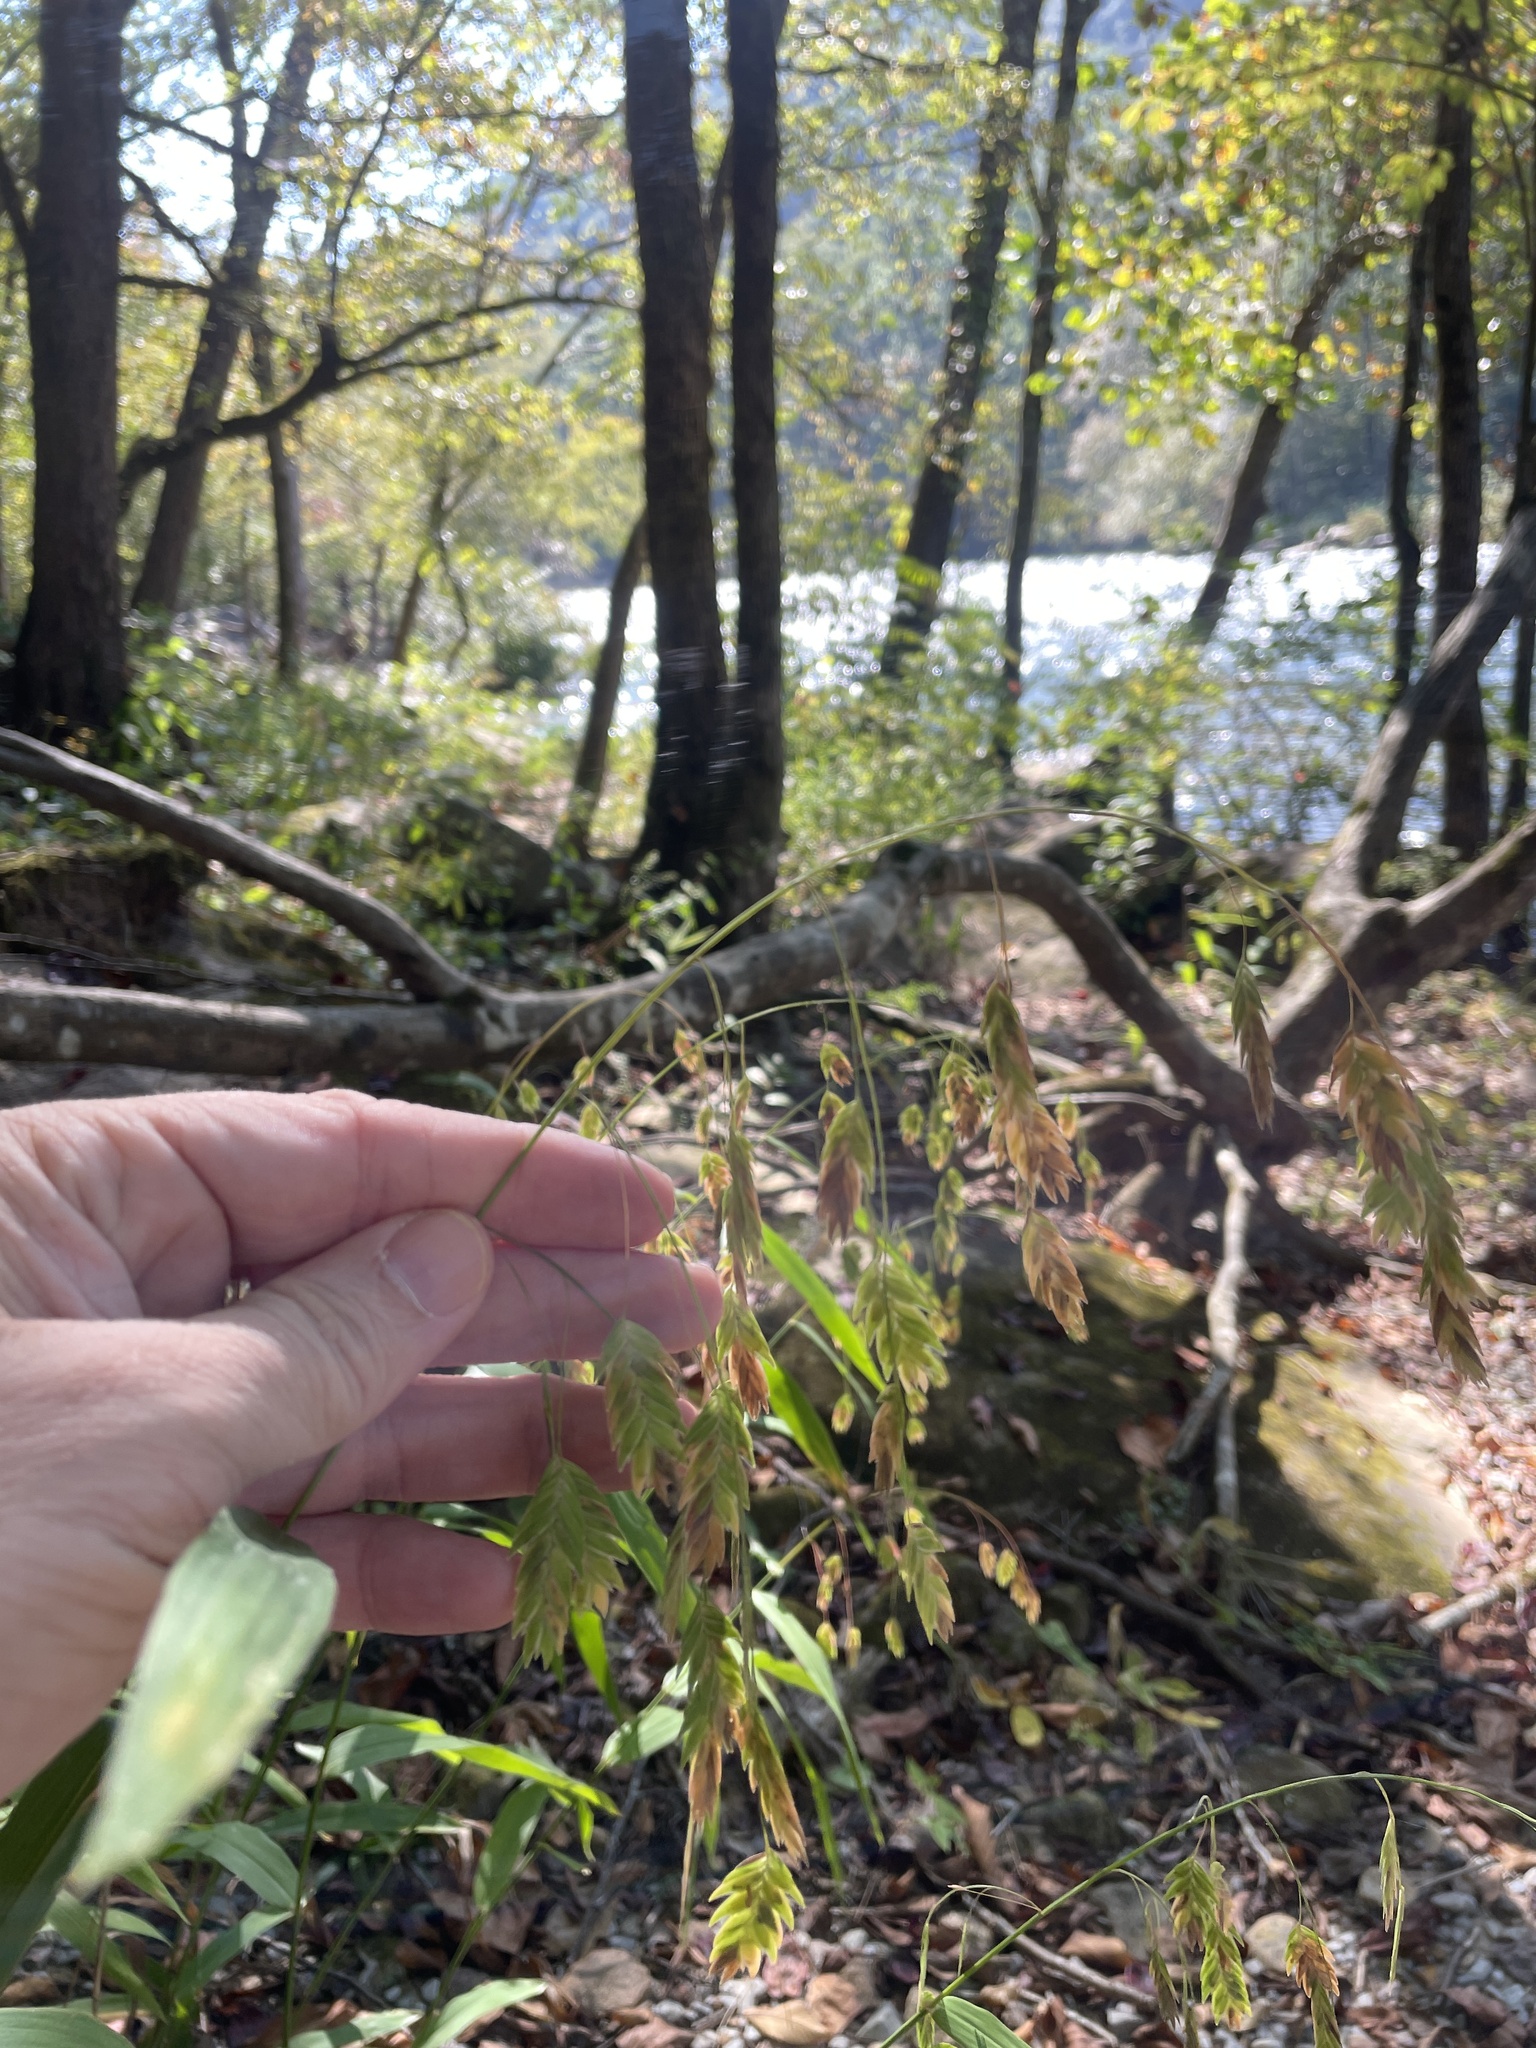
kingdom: Plantae
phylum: Tracheophyta
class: Liliopsida
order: Poales
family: Poaceae
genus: Chasmanthium
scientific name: Chasmanthium latifolium
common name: Broad-leaved chasmanthium
